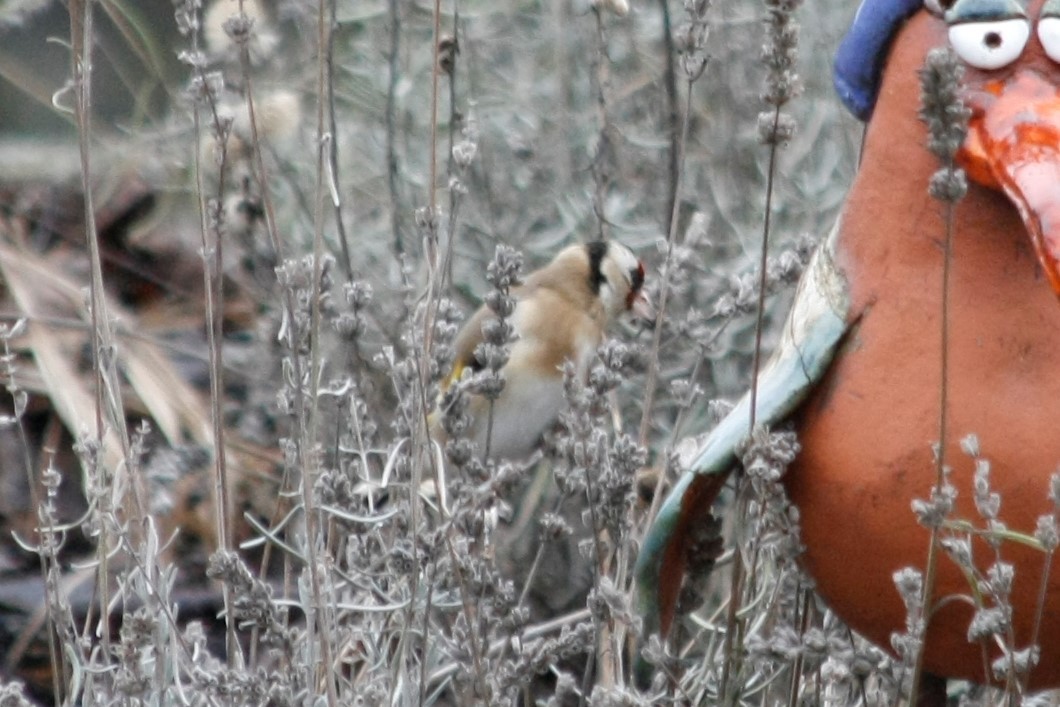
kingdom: Animalia
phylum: Chordata
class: Aves
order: Passeriformes
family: Fringillidae
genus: Carduelis
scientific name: Carduelis carduelis
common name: European goldfinch
